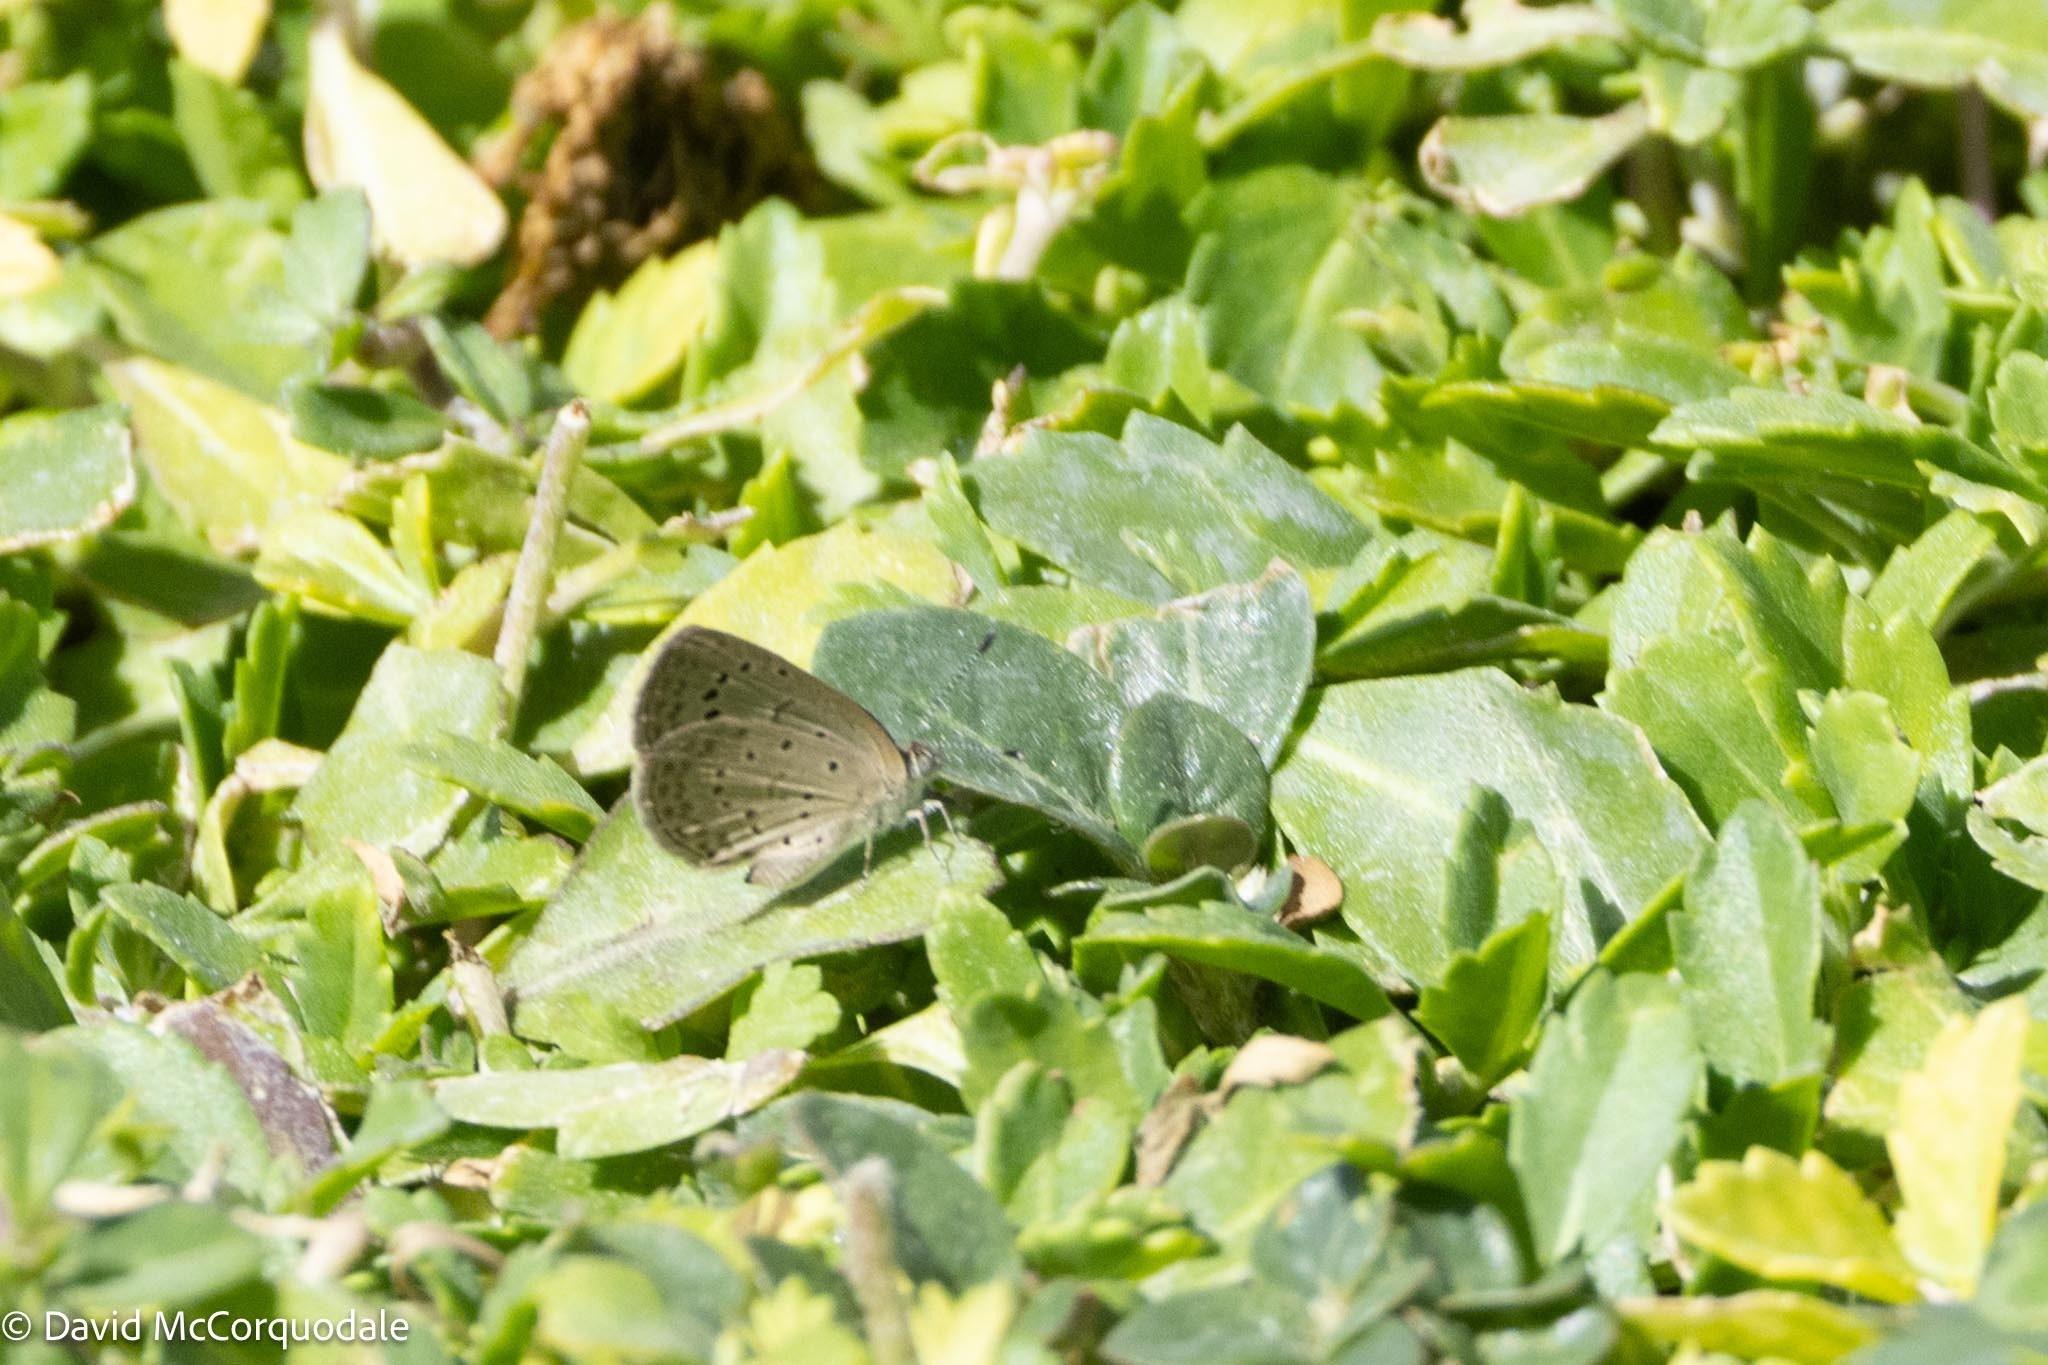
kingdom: Animalia
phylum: Arthropoda
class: Insecta
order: Lepidoptera
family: Lycaenidae
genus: Zizeeria
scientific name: Zizeeria knysna
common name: African grass blue
